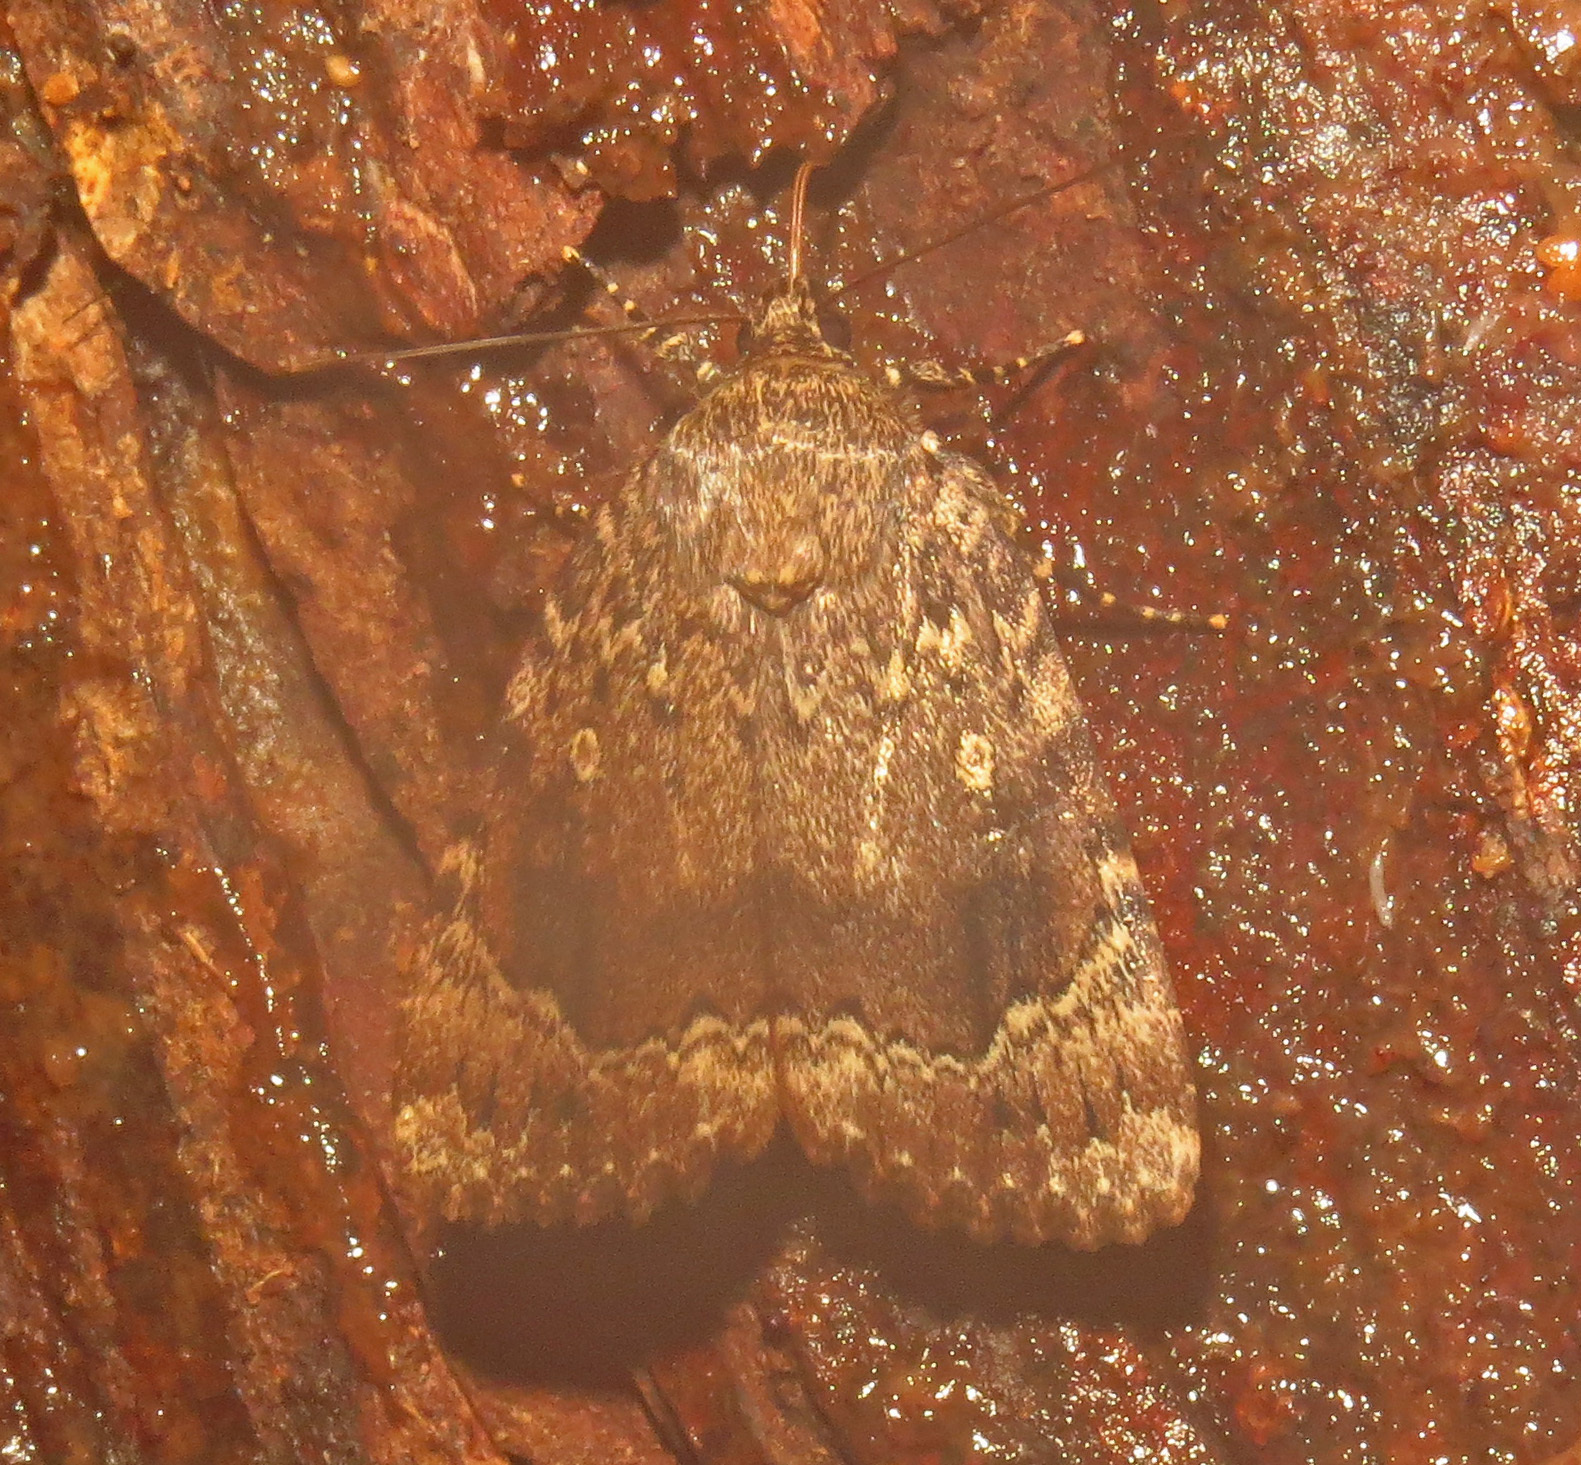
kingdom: Animalia
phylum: Arthropoda
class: Insecta
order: Lepidoptera
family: Noctuidae
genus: Amphipyra
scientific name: Amphipyra pyramidoides
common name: American copper underwing
